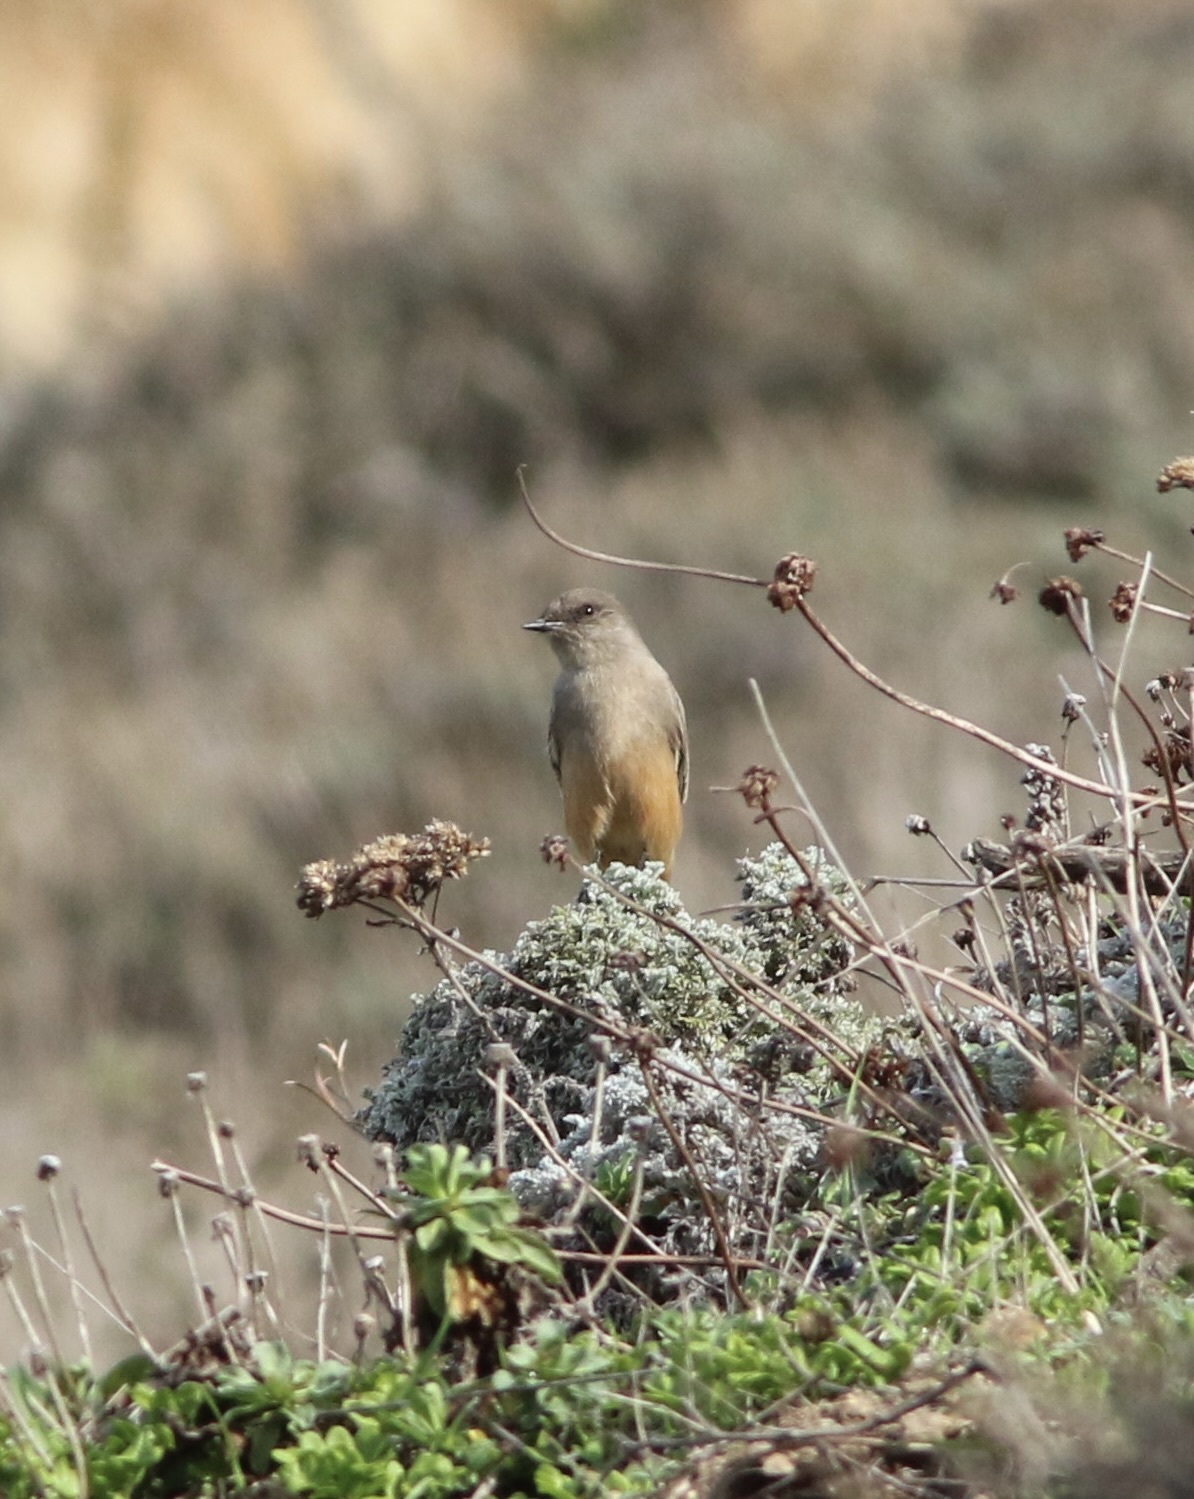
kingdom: Animalia
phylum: Chordata
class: Aves
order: Passeriformes
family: Tyrannidae
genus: Sayornis
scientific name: Sayornis saya
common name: Say's phoebe
